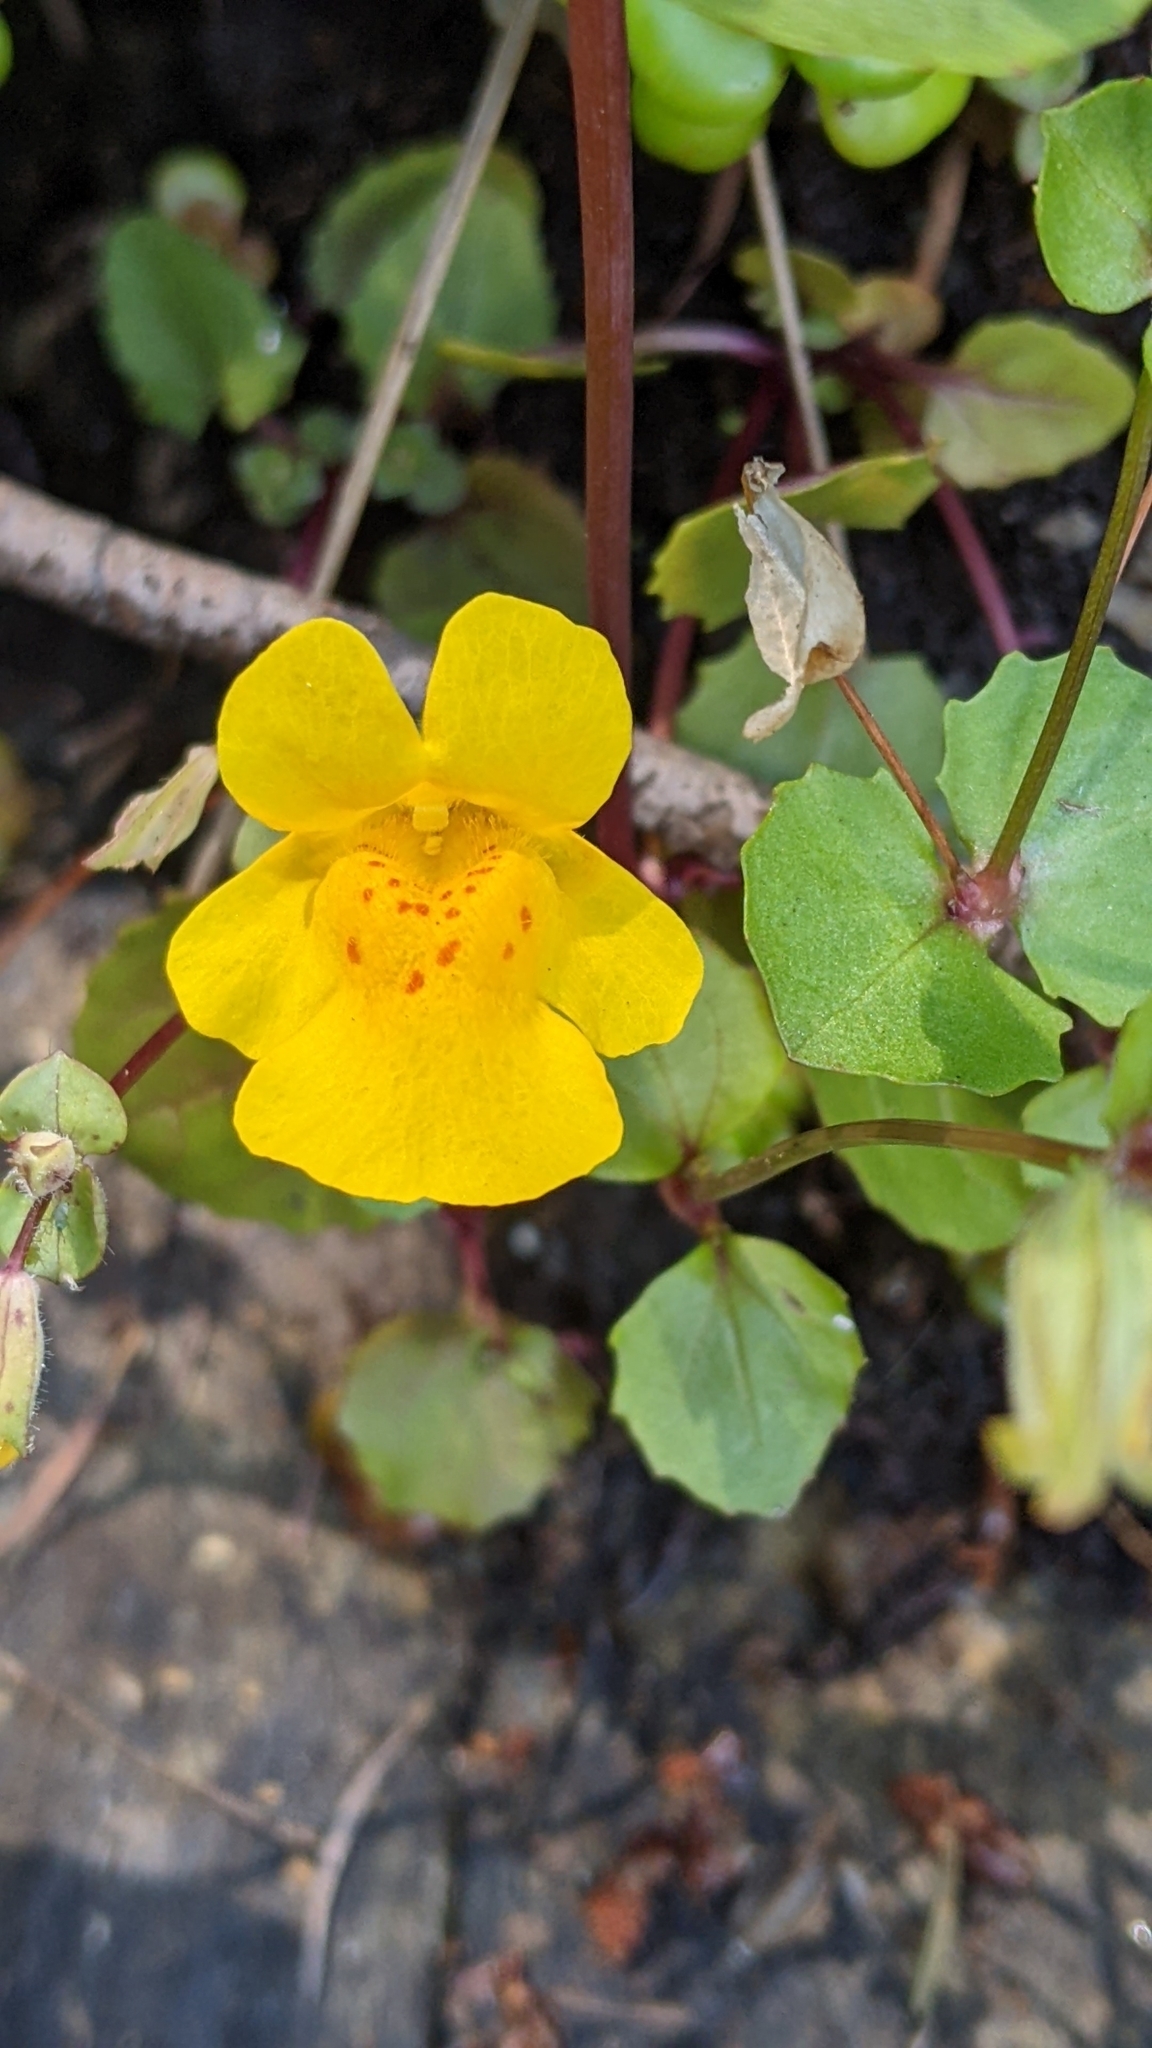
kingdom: Plantae
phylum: Tracheophyta
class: Magnoliopsida
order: Lamiales
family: Phrymaceae
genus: Erythranthe
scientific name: Erythranthe guttata
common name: Monkeyflower
